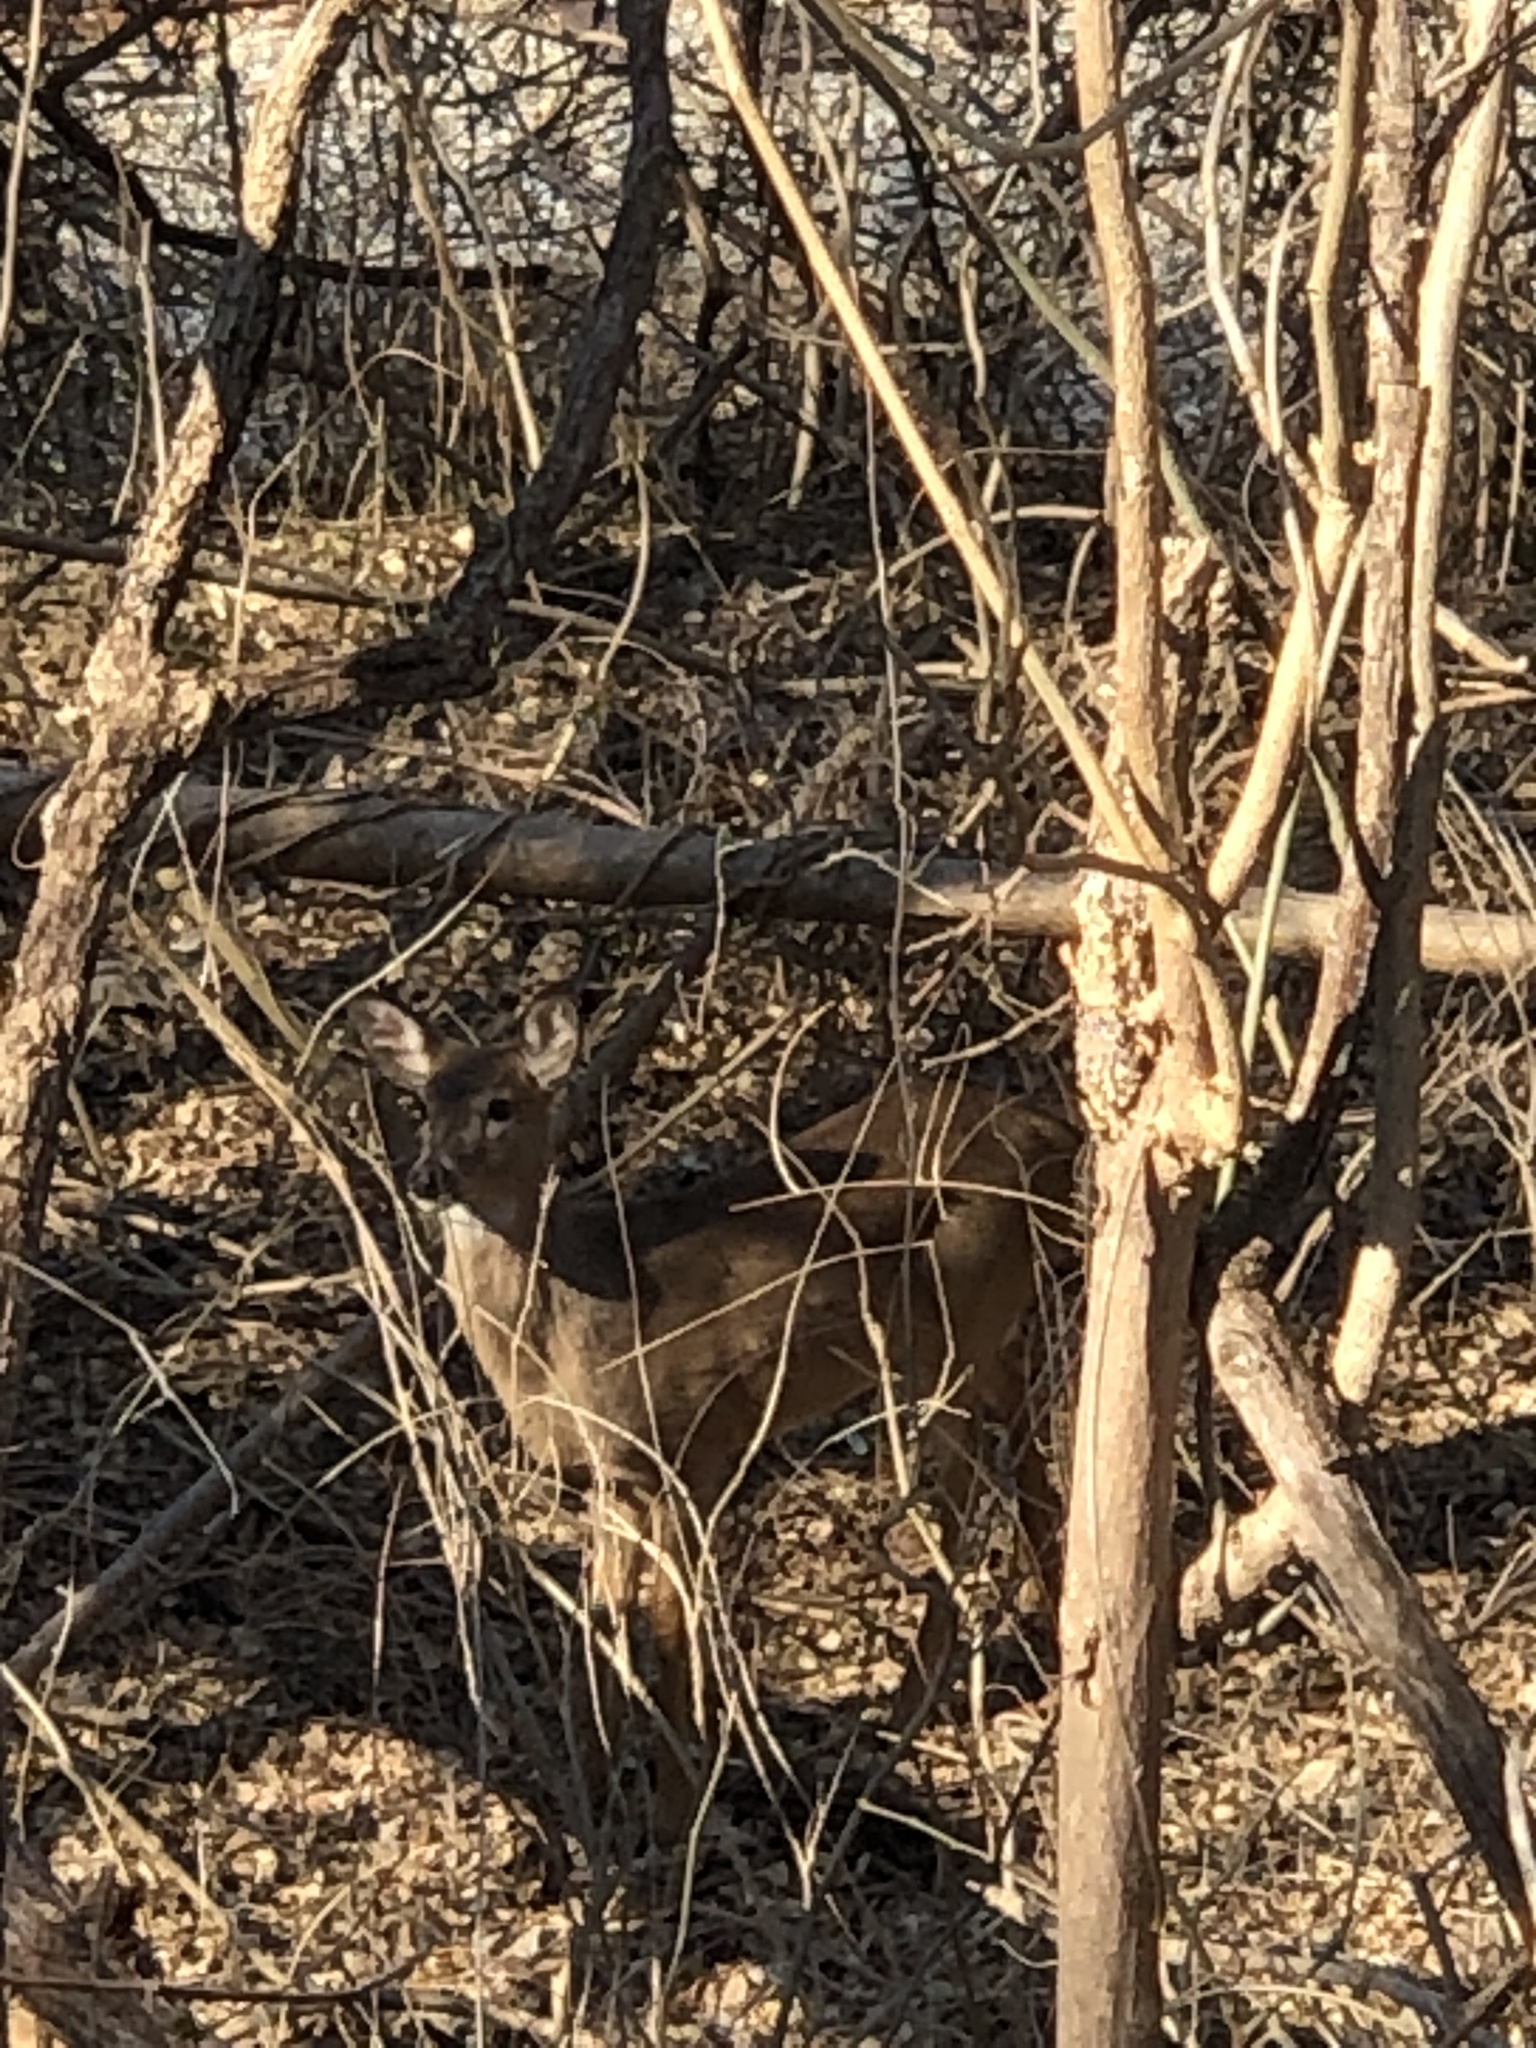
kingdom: Animalia
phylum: Chordata
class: Mammalia
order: Artiodactyla
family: Cervidae
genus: Odocoileus
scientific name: Odocoileus virginianus
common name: White-tailed deer
